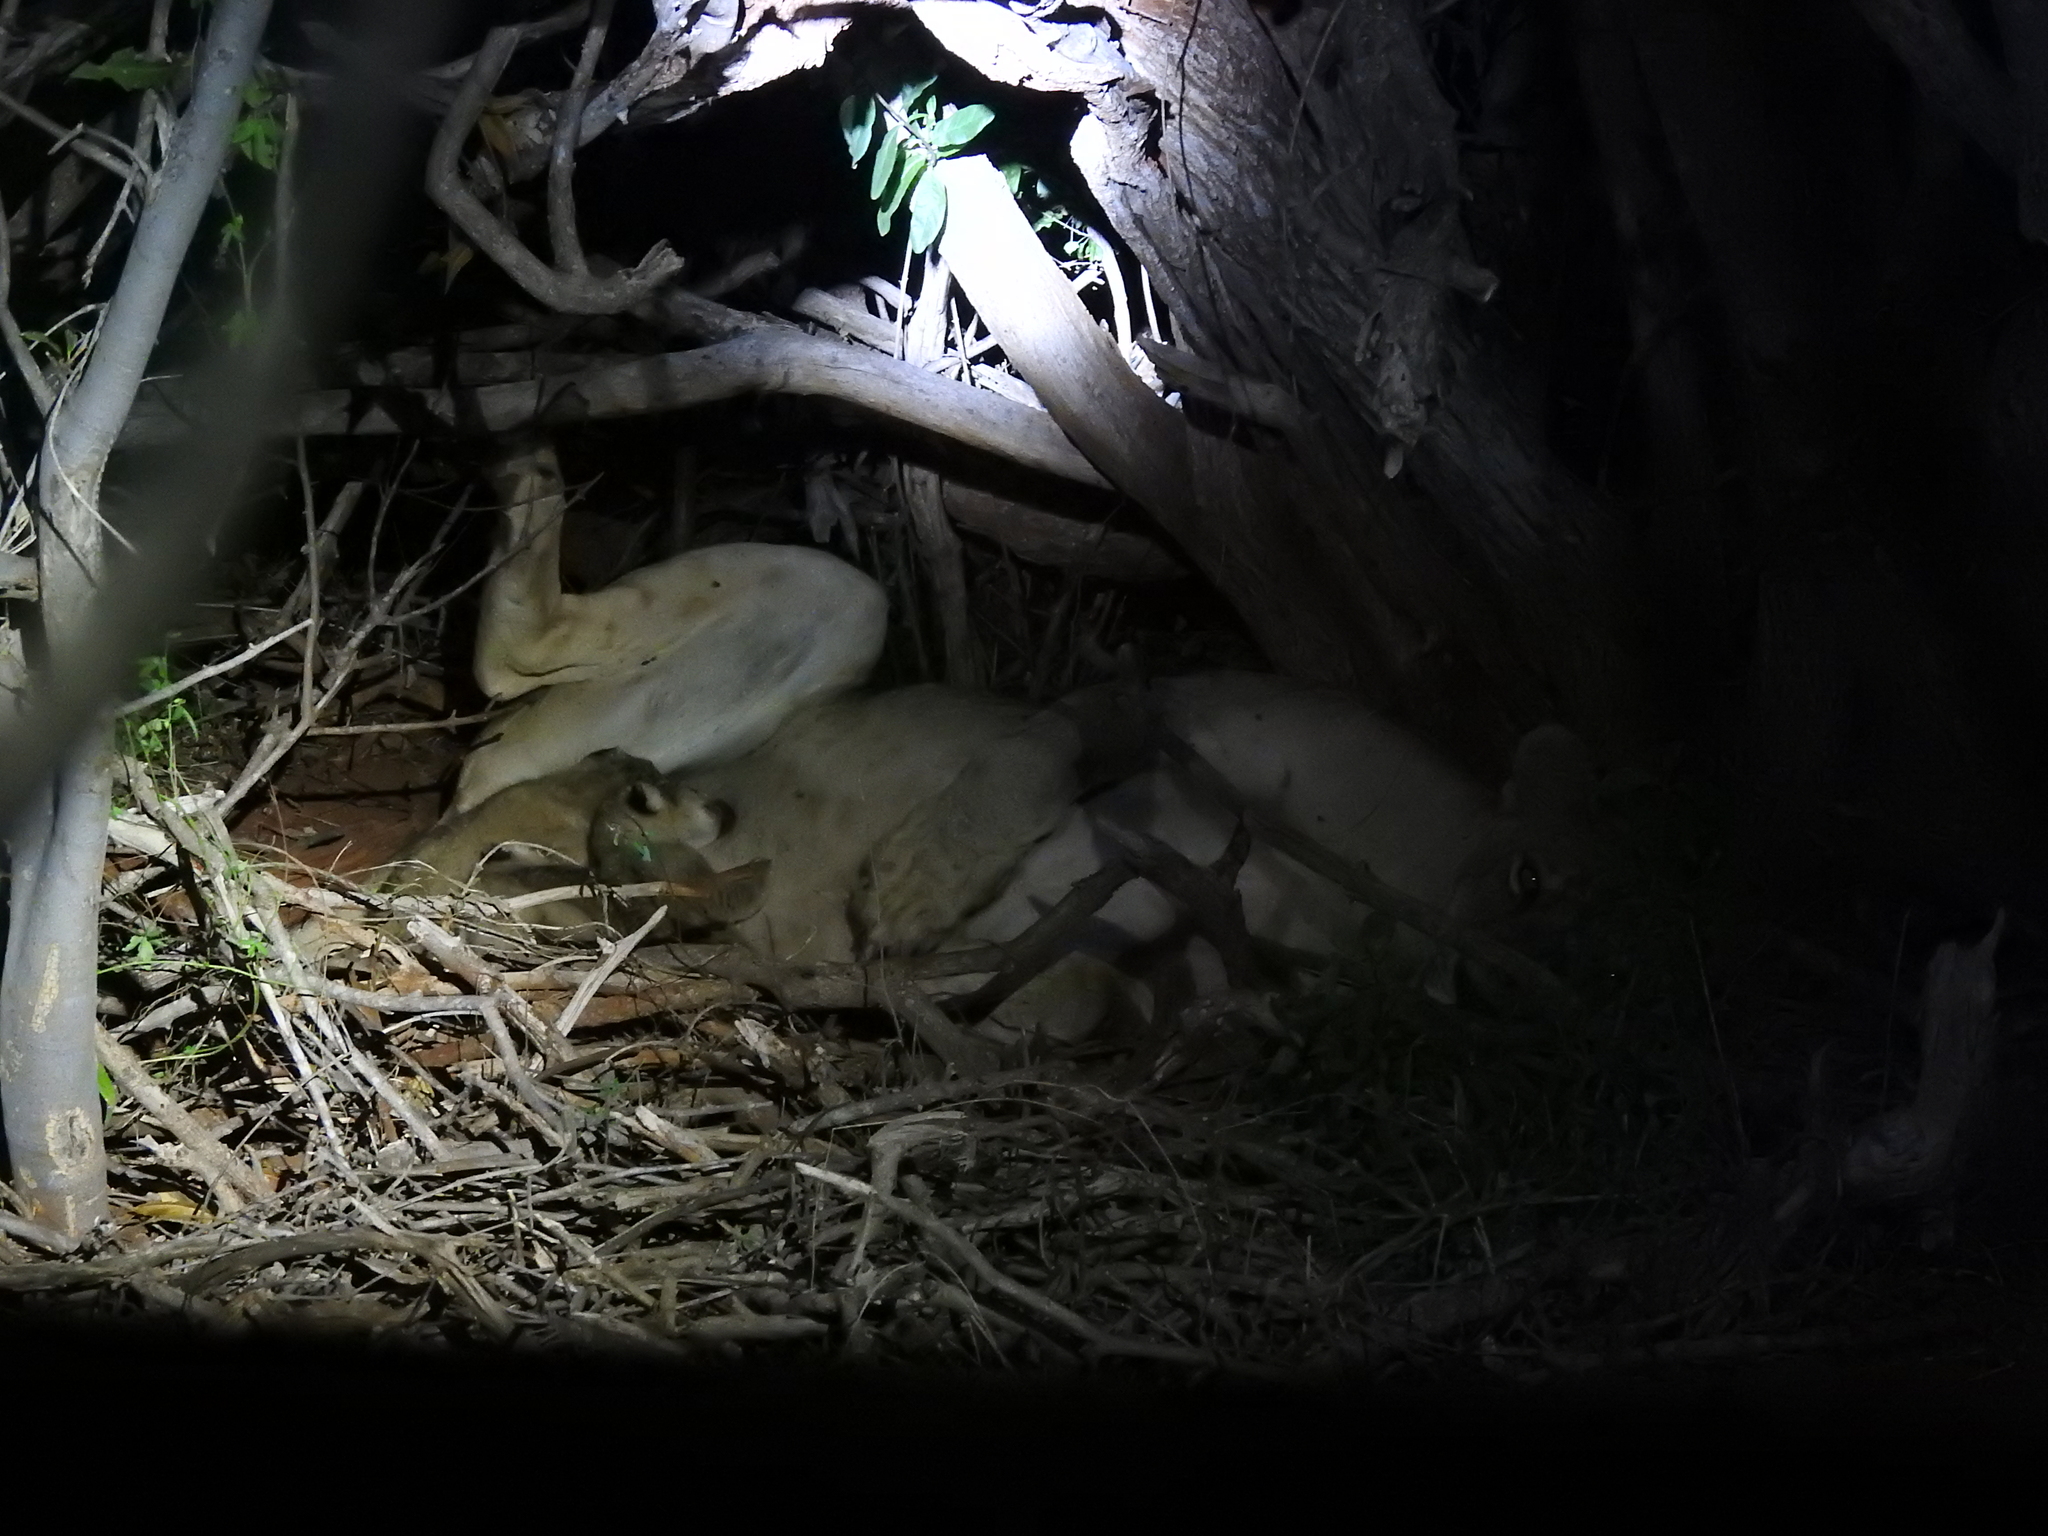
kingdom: Animalia
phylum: Chordata
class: Mammalia
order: Carnivora
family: Felidae
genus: Panthera
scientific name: Panthera leo
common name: Lion
